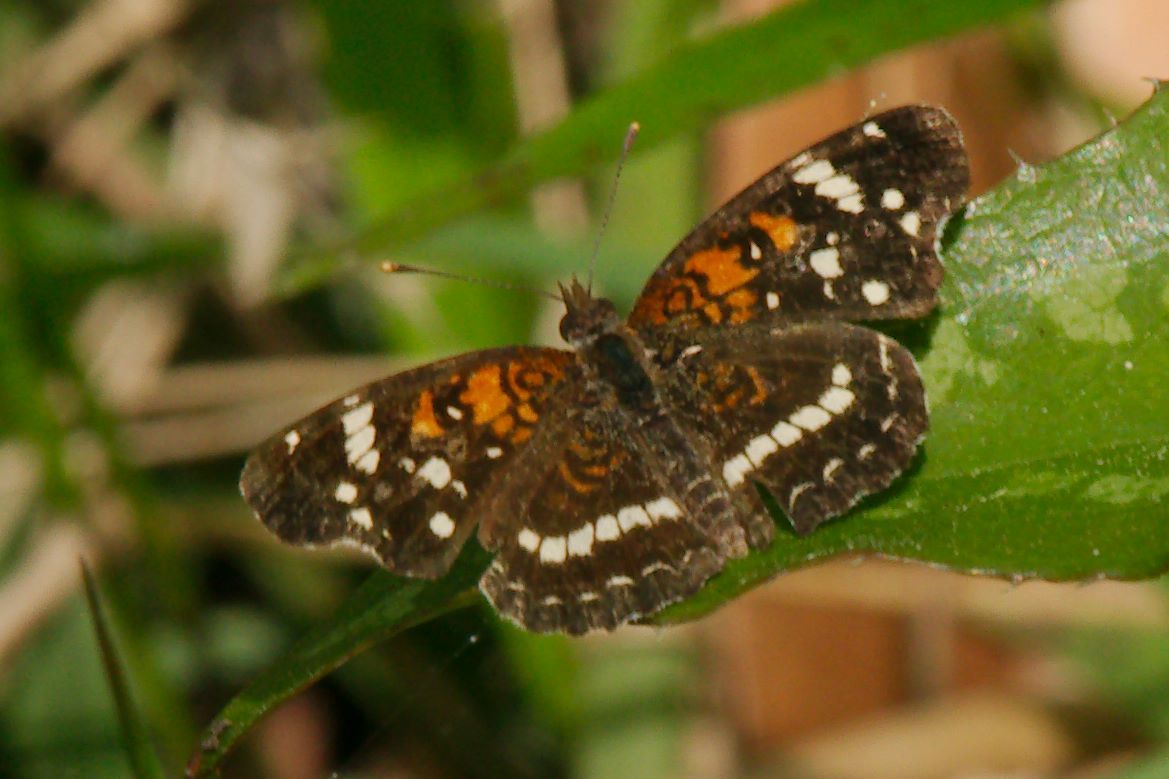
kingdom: Animalia
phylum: Arthropoda
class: Insecta
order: Lepidoptera
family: Nymphalidae
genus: Anthanassa
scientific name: Anthanassa taxana
